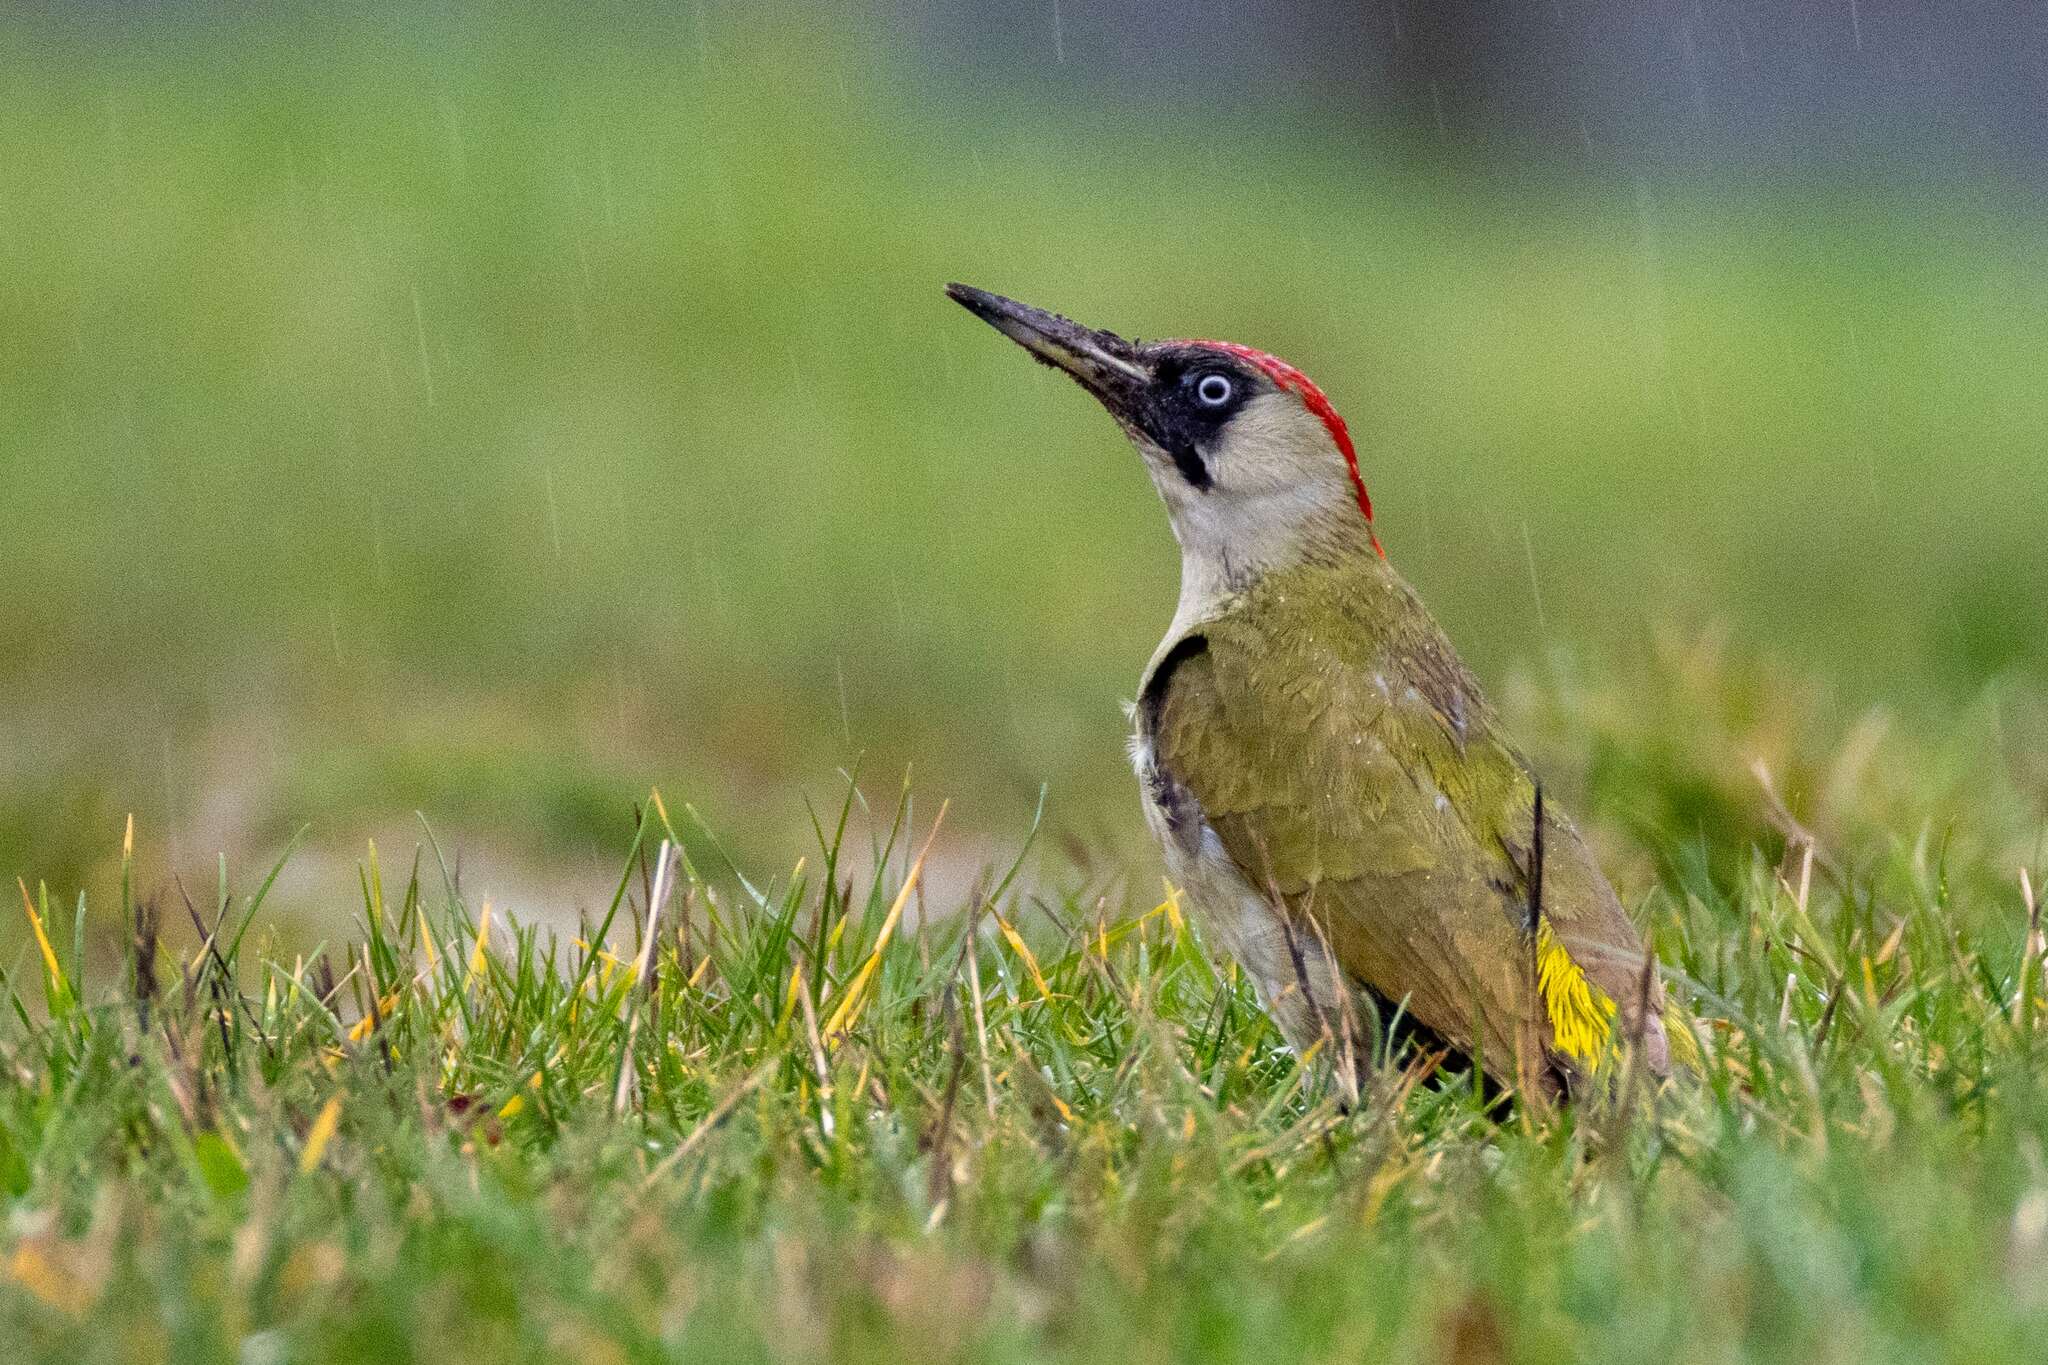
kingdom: Animalia
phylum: Chordata
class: Aves
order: Piciformes
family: Picidae
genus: Picus
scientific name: Picus viridis
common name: European green woodpecker
